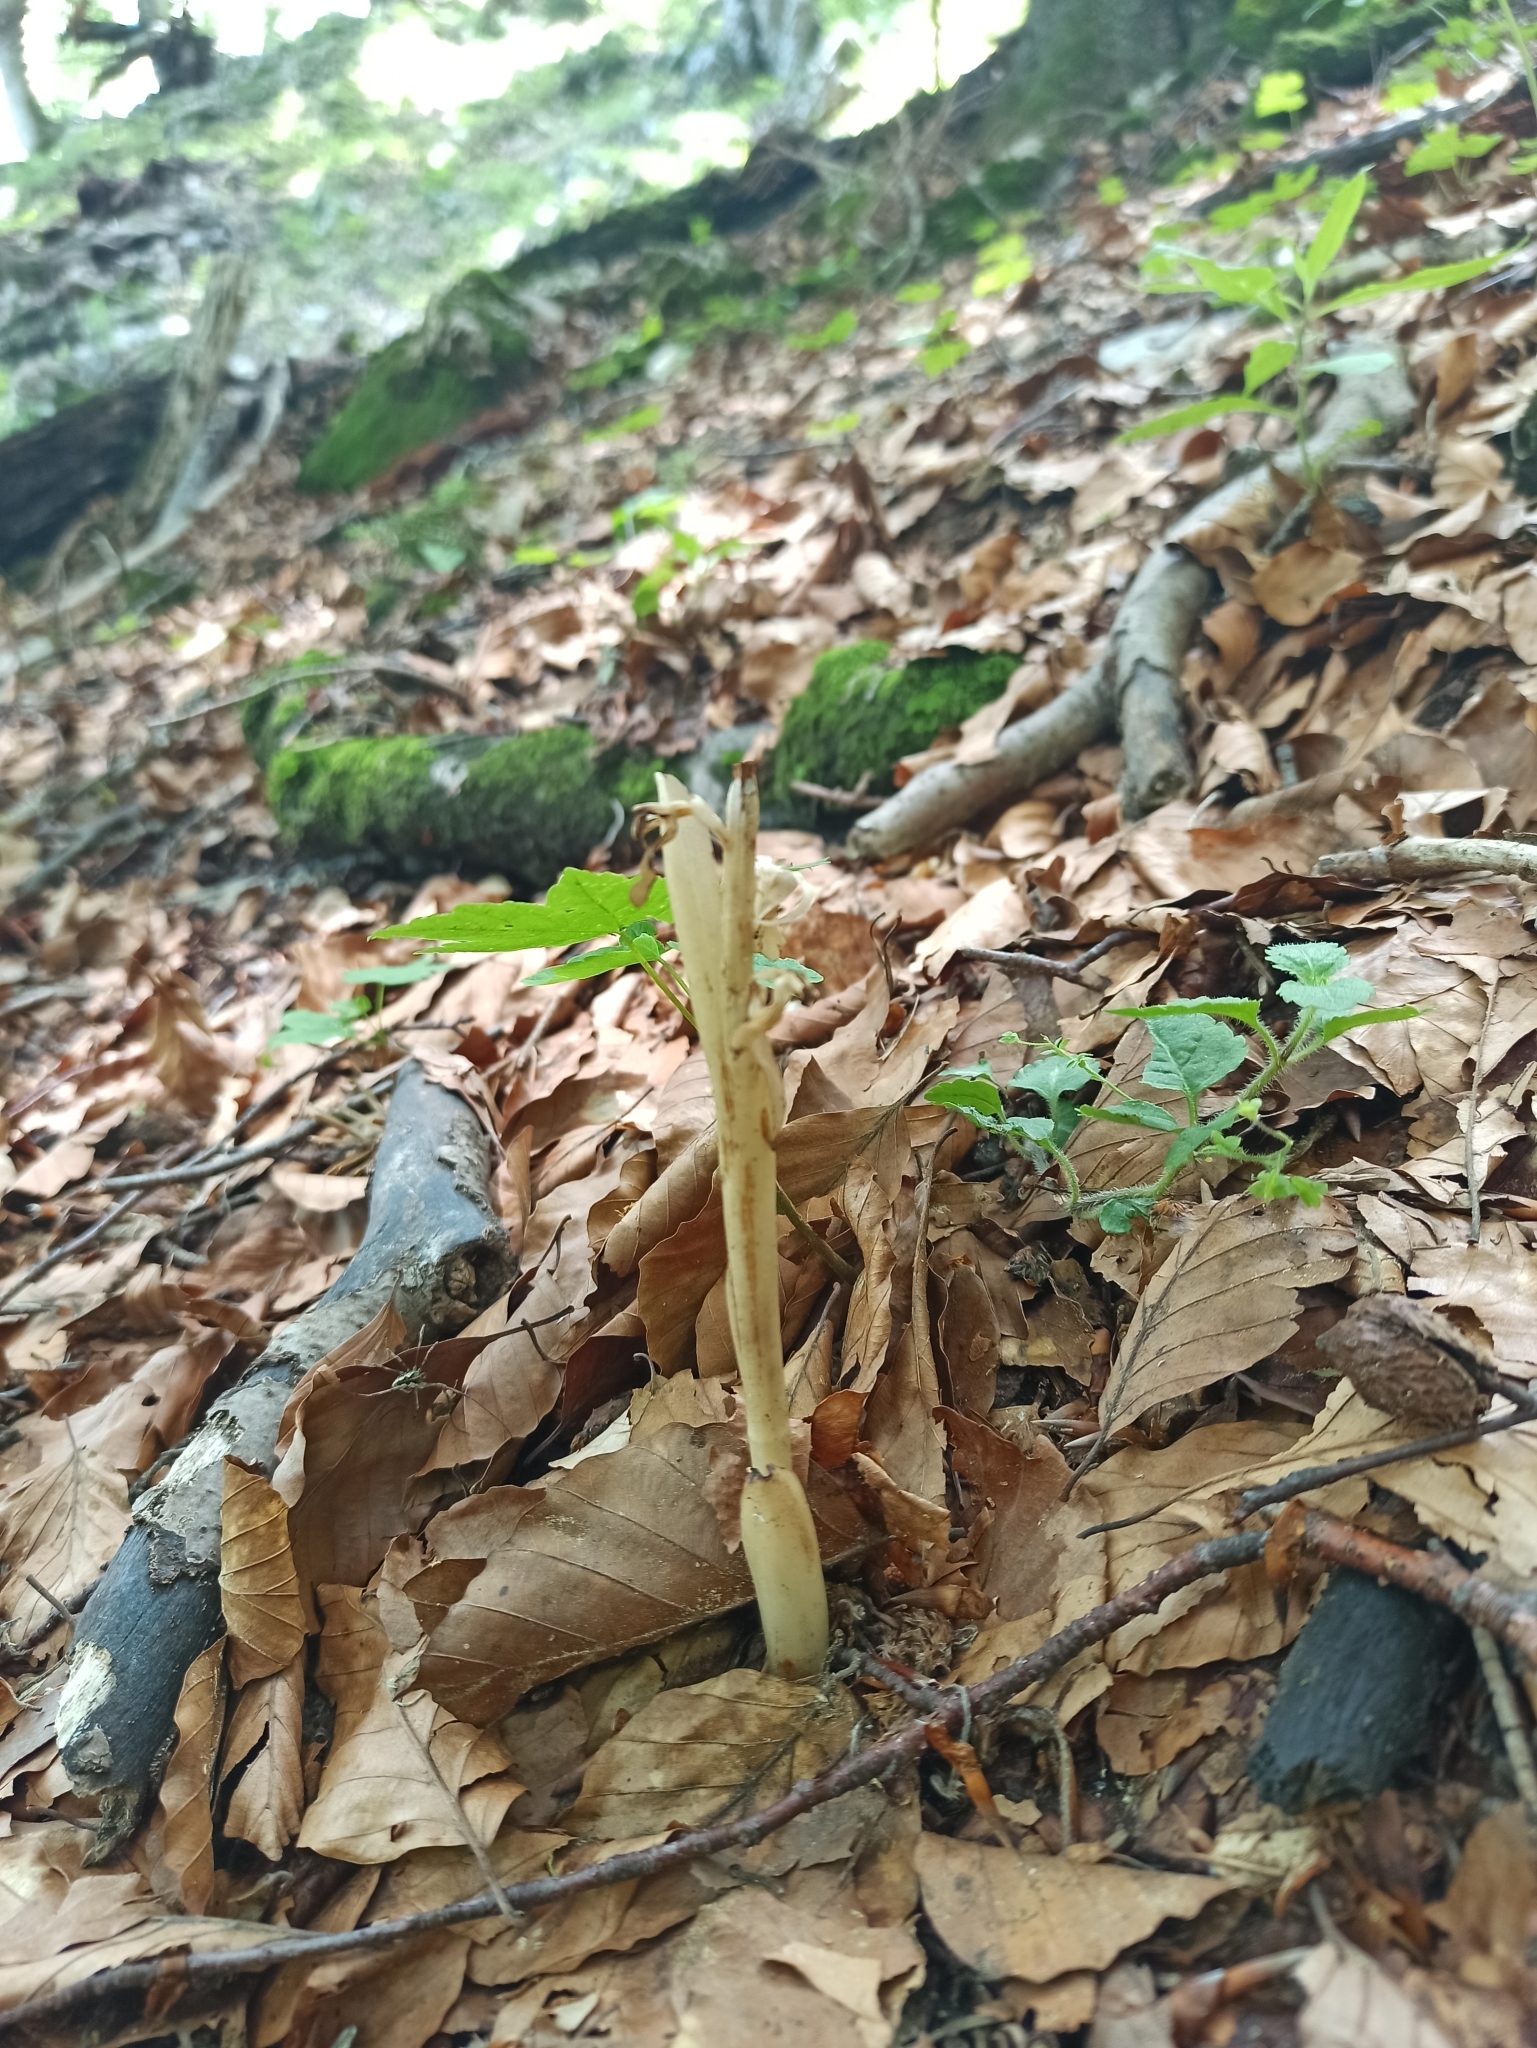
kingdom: Plantae
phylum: Tracheophyta
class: Liliopsida
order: Asparagales
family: Orchidaceae
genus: Neottia
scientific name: Neottia nidus-avis
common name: Bird's-nest orchid
